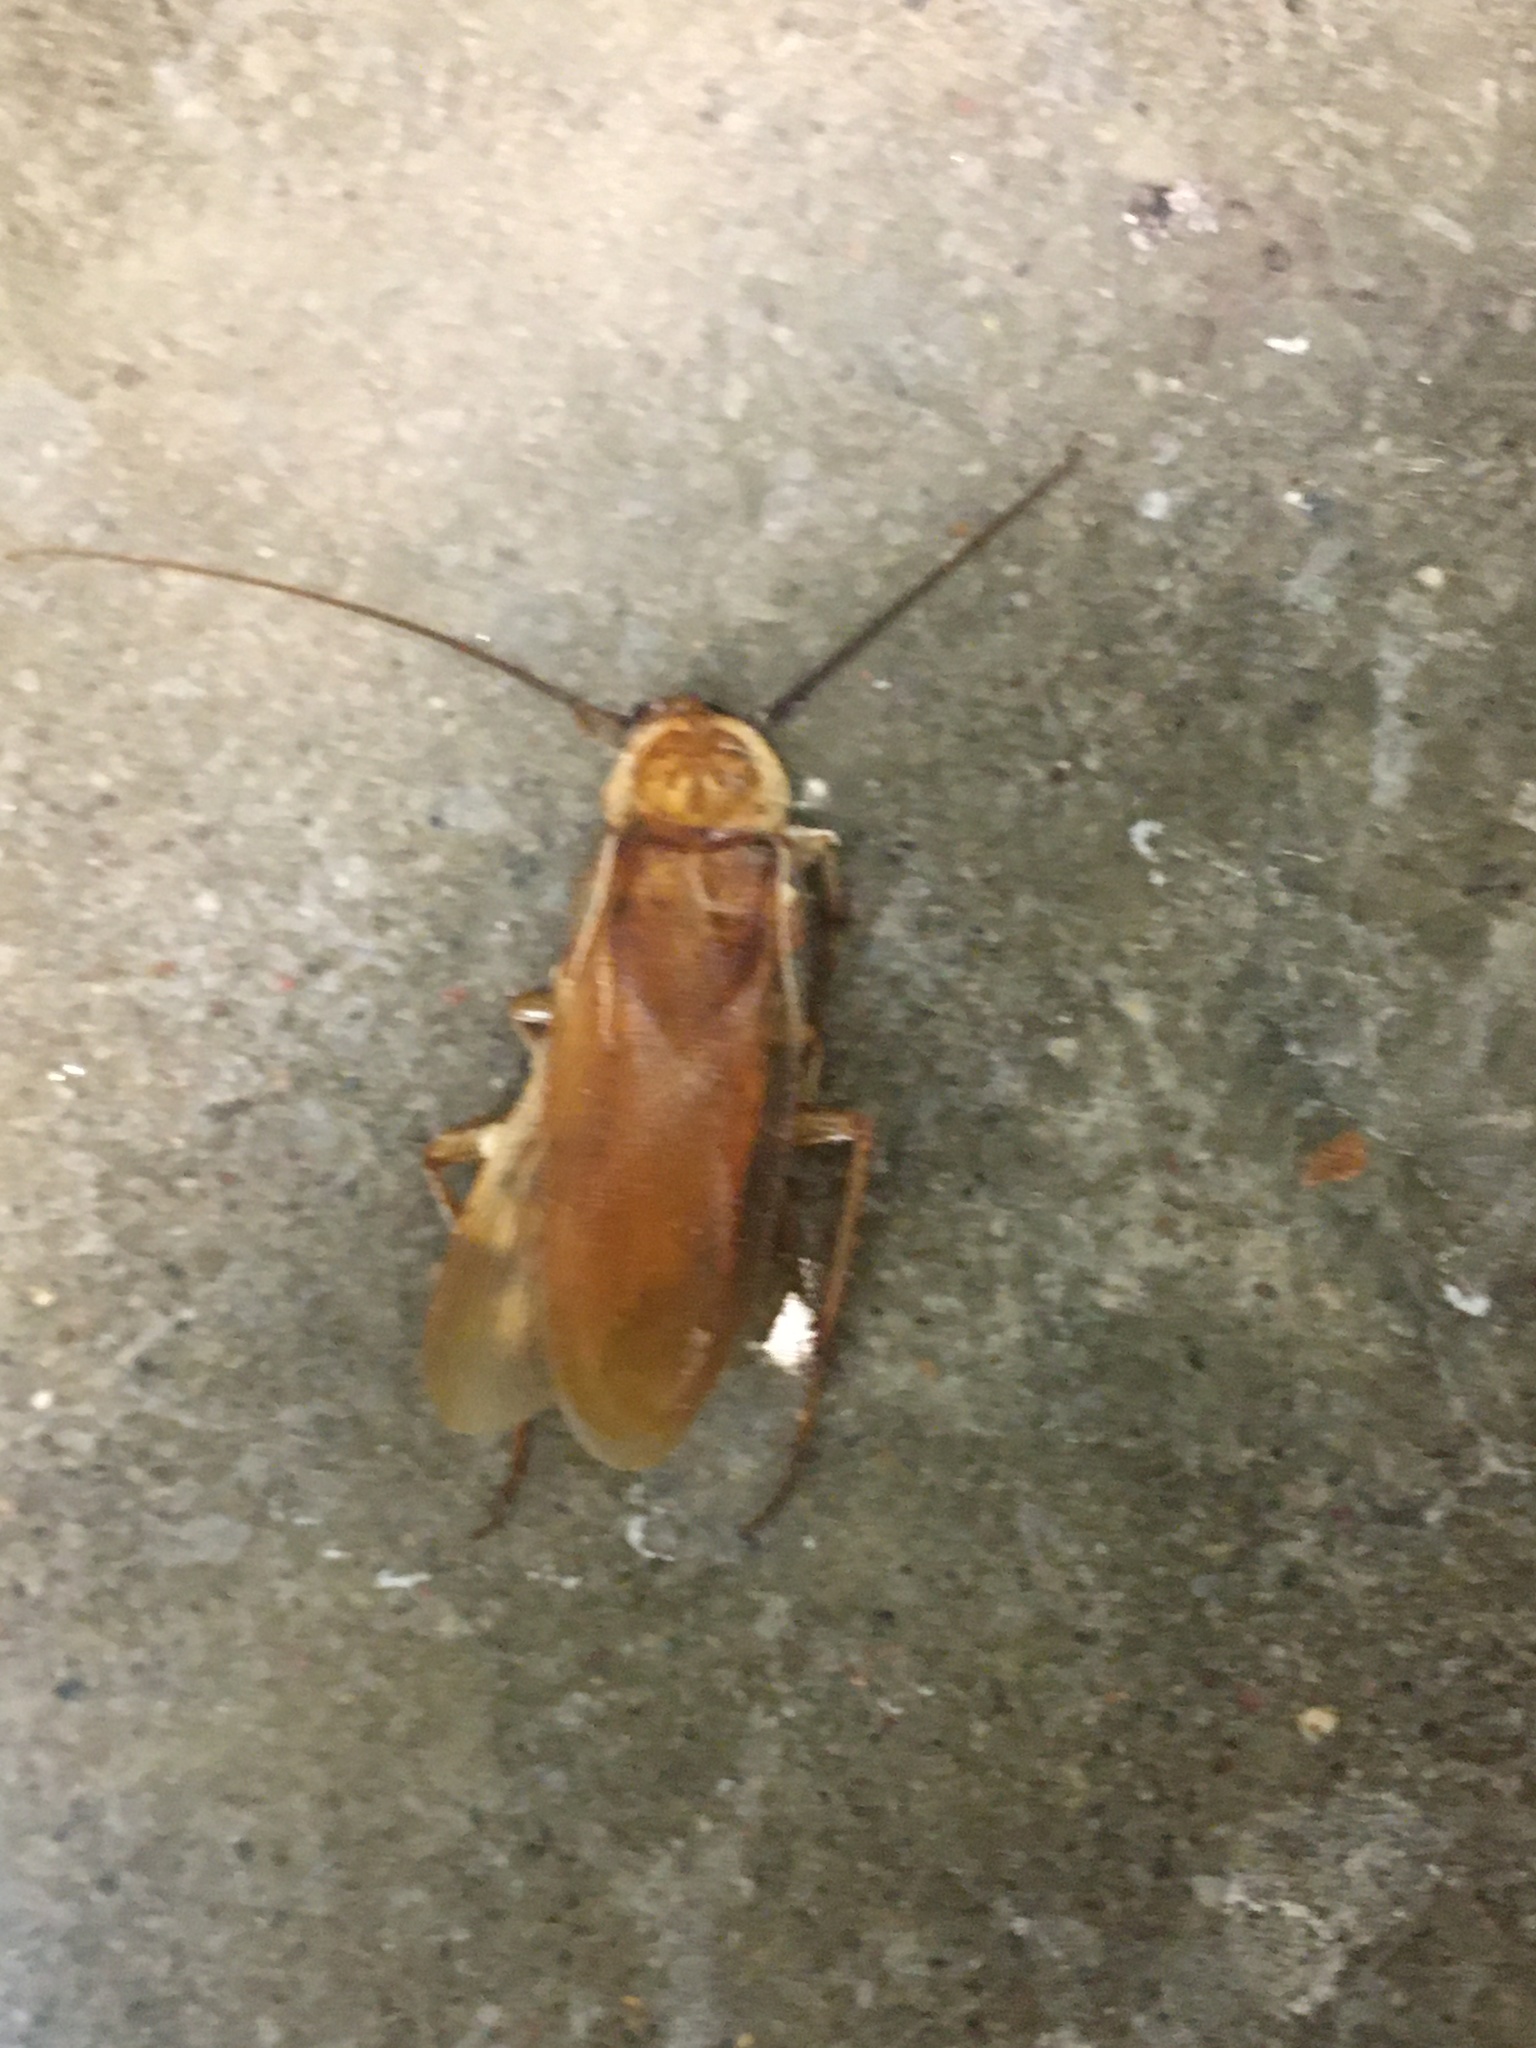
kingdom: Animalia
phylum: Arthropoda
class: Insecta
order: Blattodea
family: Blattidae
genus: Periplaneta
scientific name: Periplaneta lateralis
